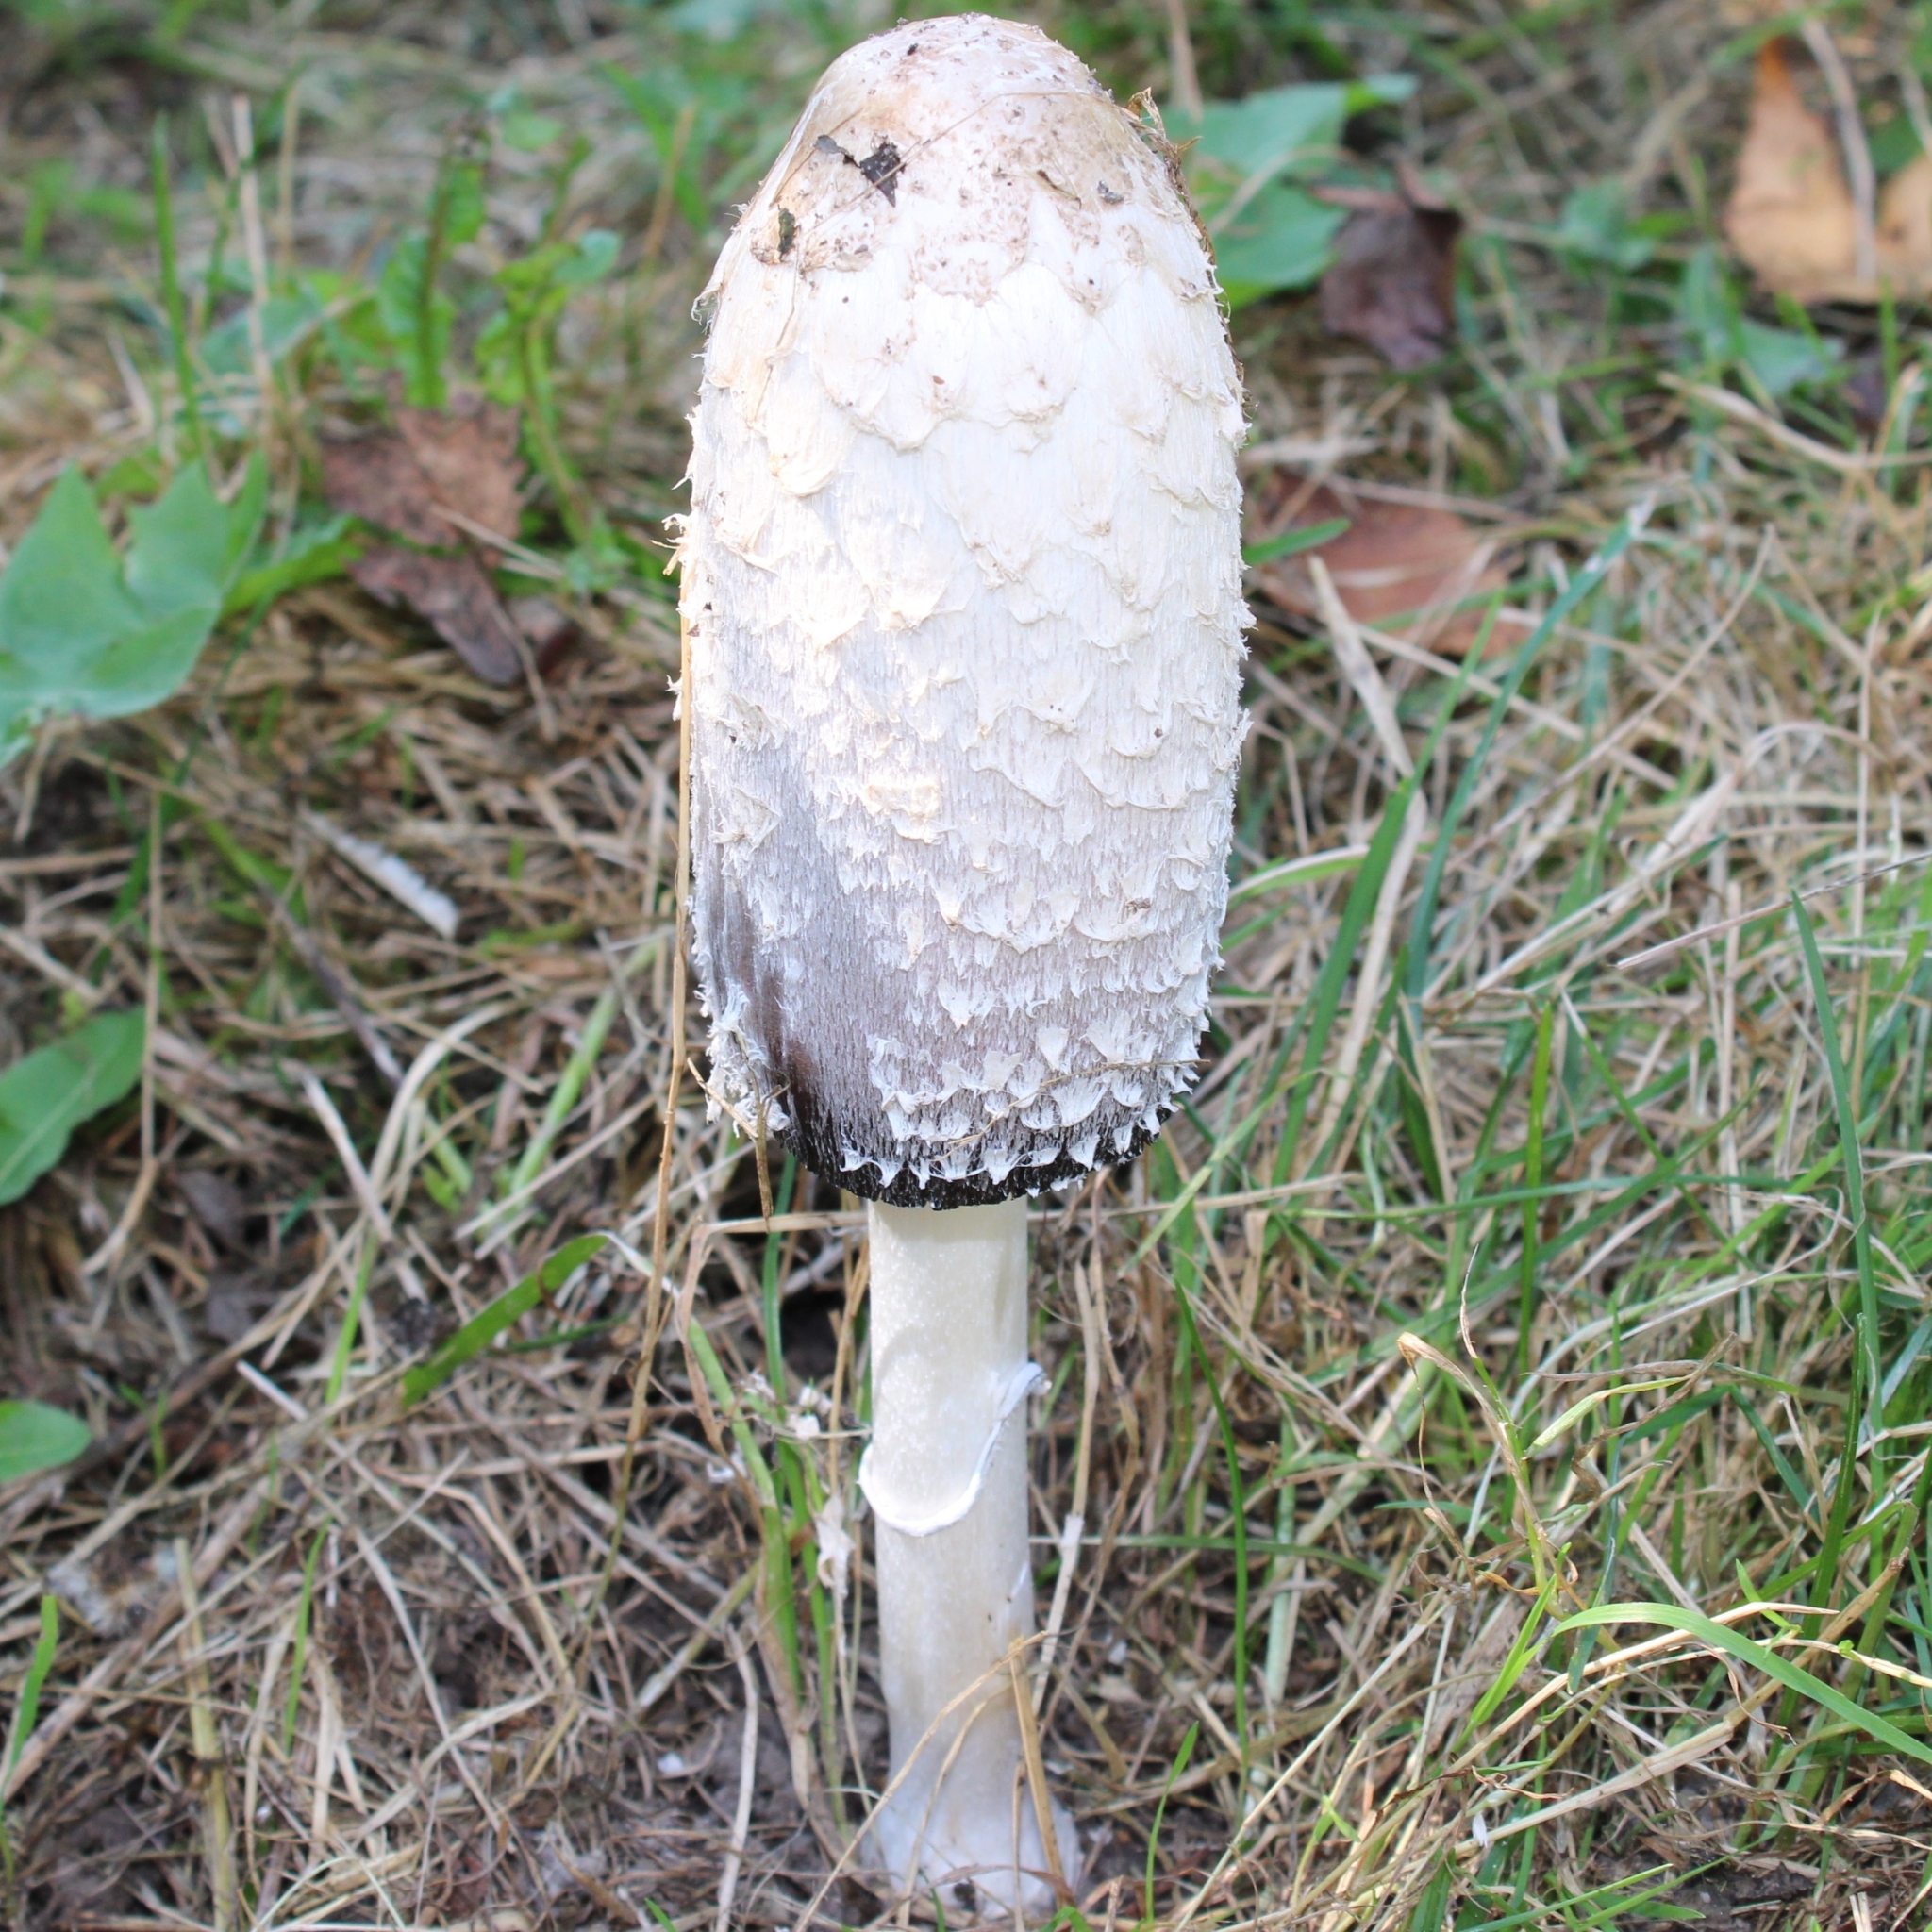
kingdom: Fungi
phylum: Basidiomycota
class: Agaricomycetes
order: Agaricales
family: Agaricaceae
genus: Coprinus
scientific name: Coprinus comatus
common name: Lawyer's wig
